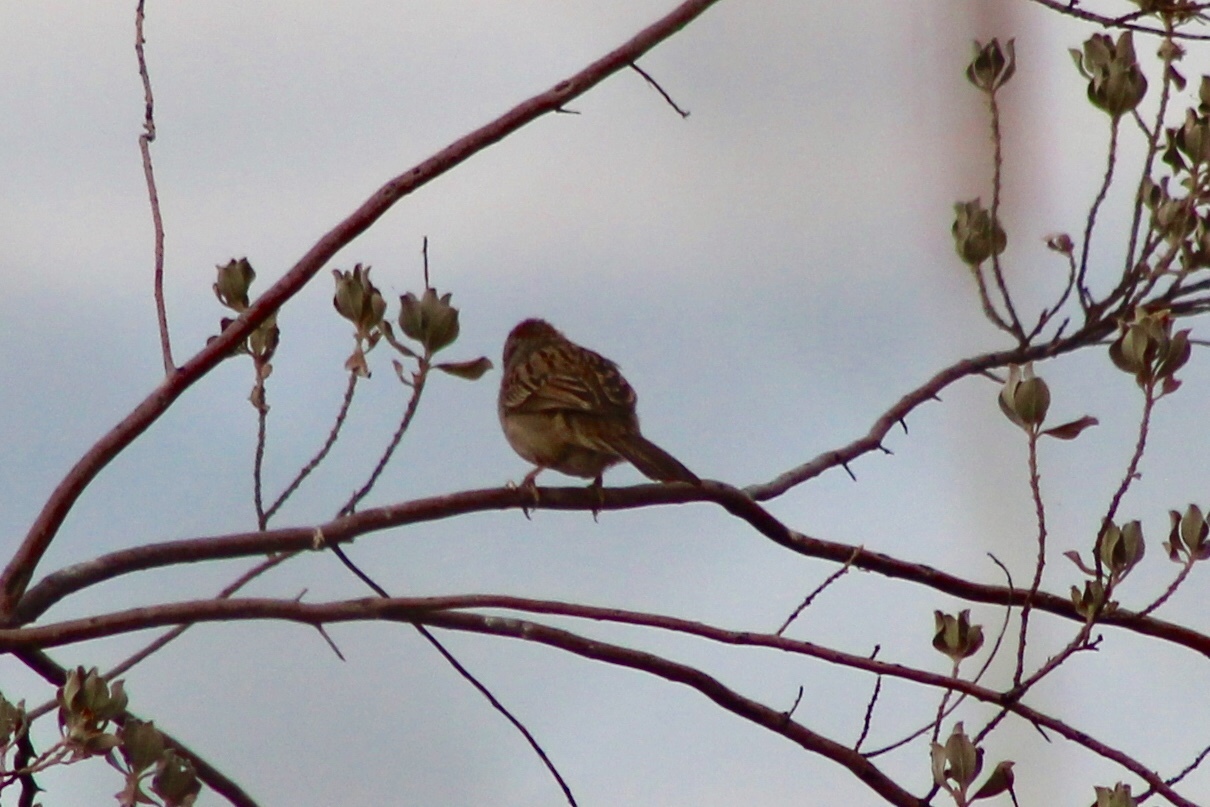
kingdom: Animalia
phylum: Chordata
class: Aves
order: Passeriformes
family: Passerellidae
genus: Peucaea
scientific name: Peucaea carpalis
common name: Rufous-winged sparrow
